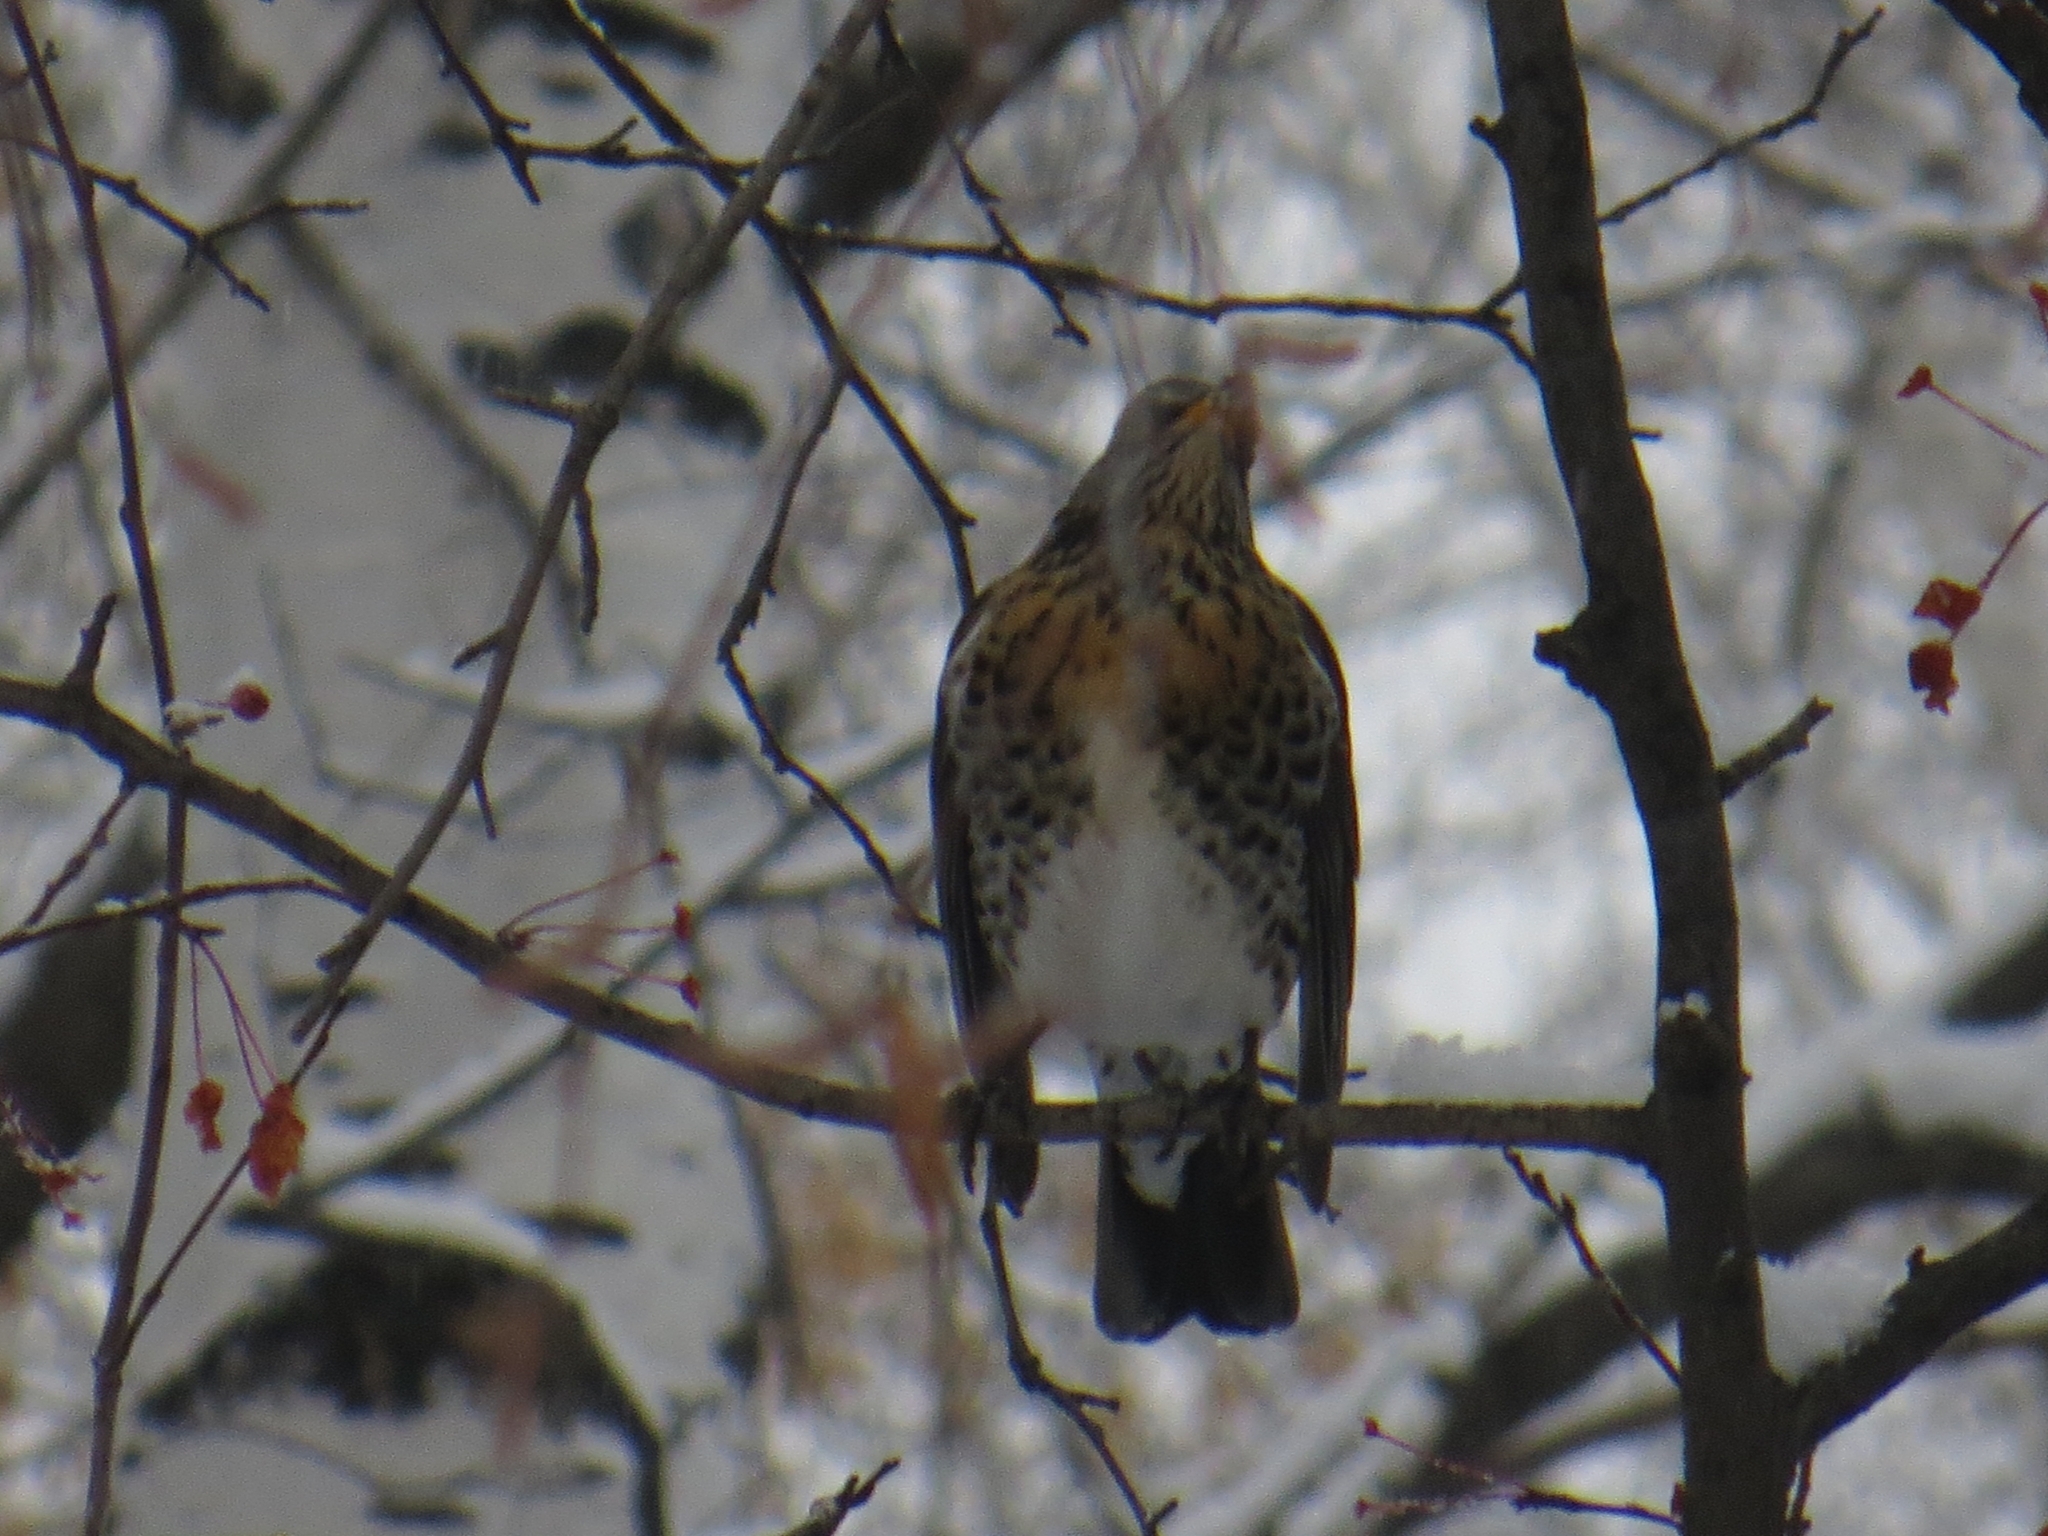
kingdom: Animalia
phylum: Chordata
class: Aves
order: Passeriformes
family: Turdidae
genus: Turdus
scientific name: Turdus pilaris
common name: Fieldfare
